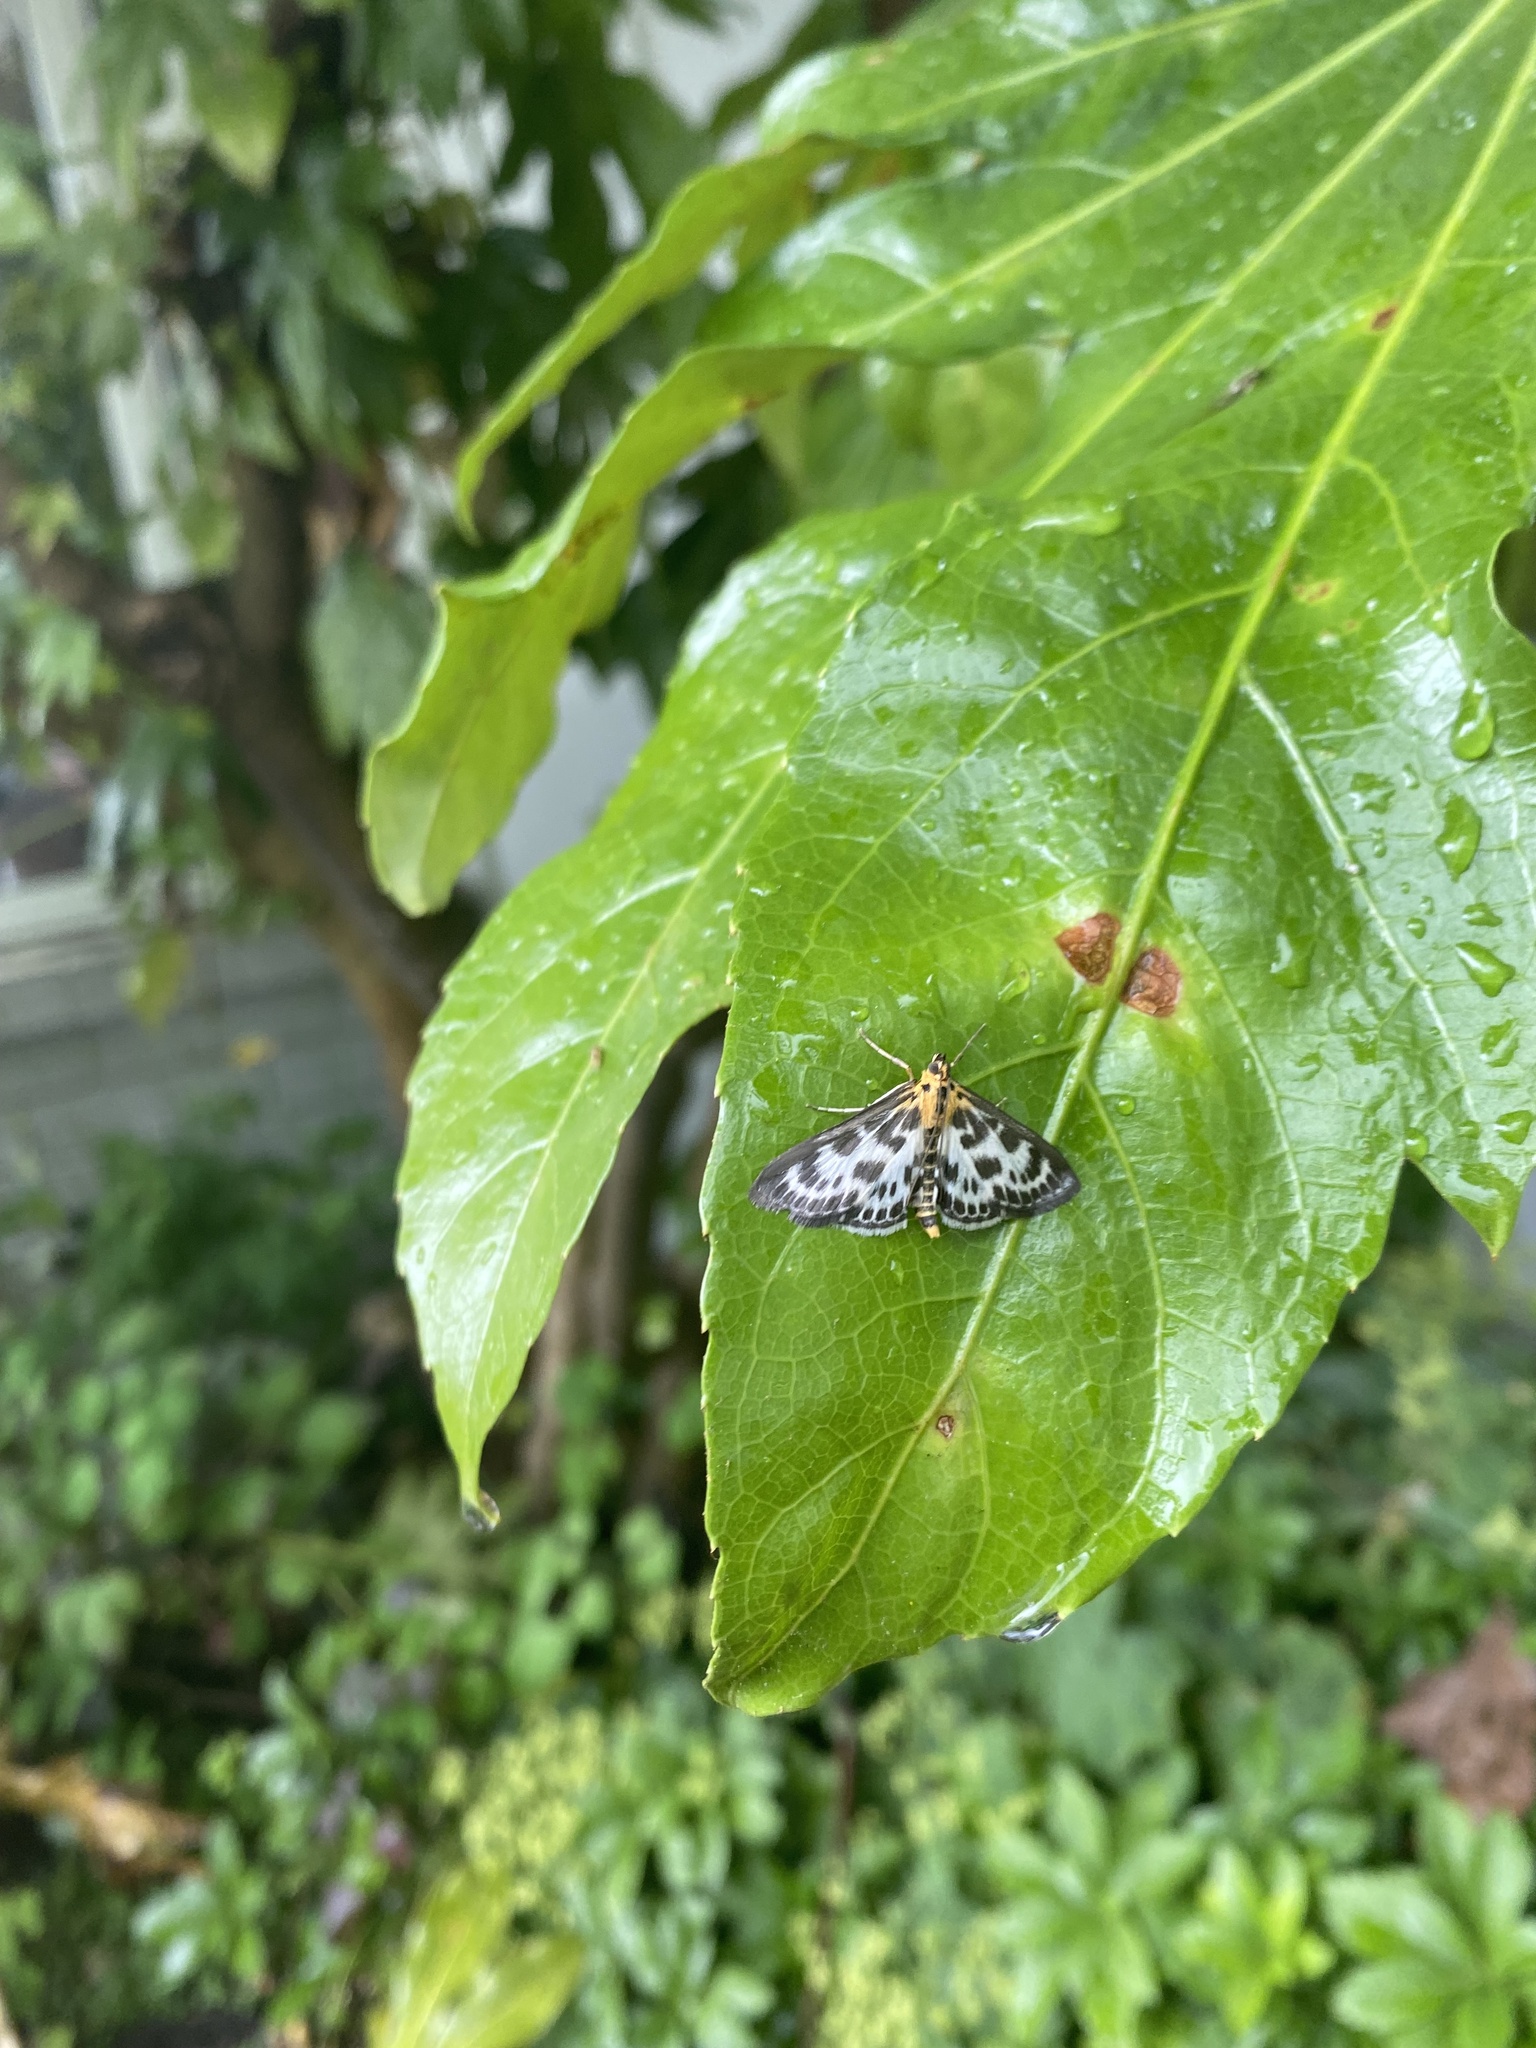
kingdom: Animalia
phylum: Arthropoda
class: Insecta
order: Lepidoptera
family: Crambidae
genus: Anania
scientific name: Anania hortulata
